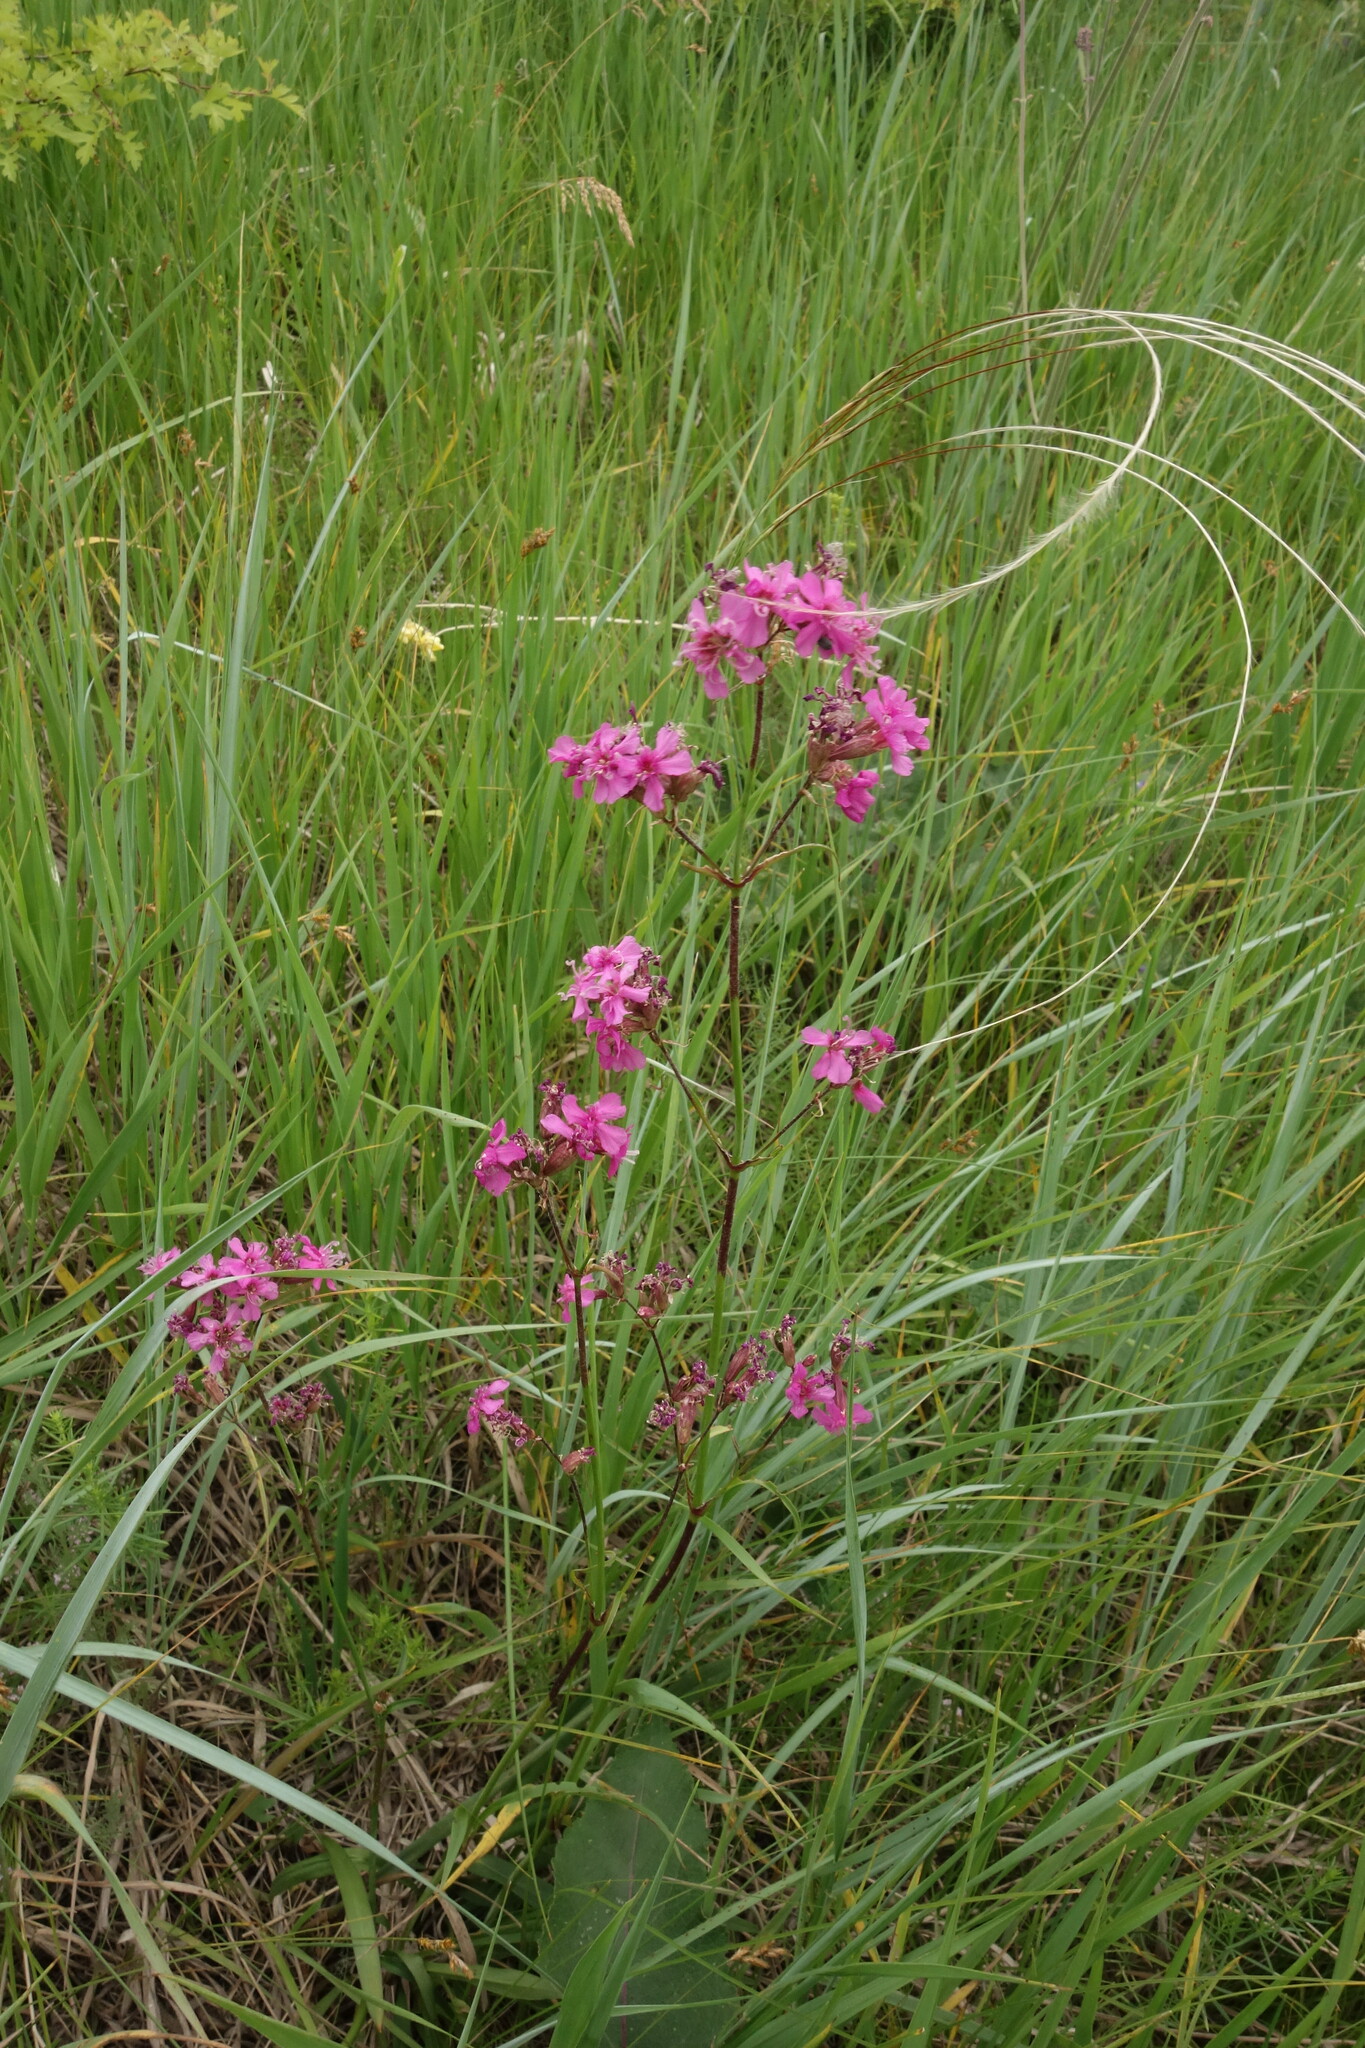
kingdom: Plantae
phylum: Tracheophyta
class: Magnoliopsida
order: Caryophyllales
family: Caryophyllaceae
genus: Viscaria
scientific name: Viscaria vulgaris
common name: Clammy campion
